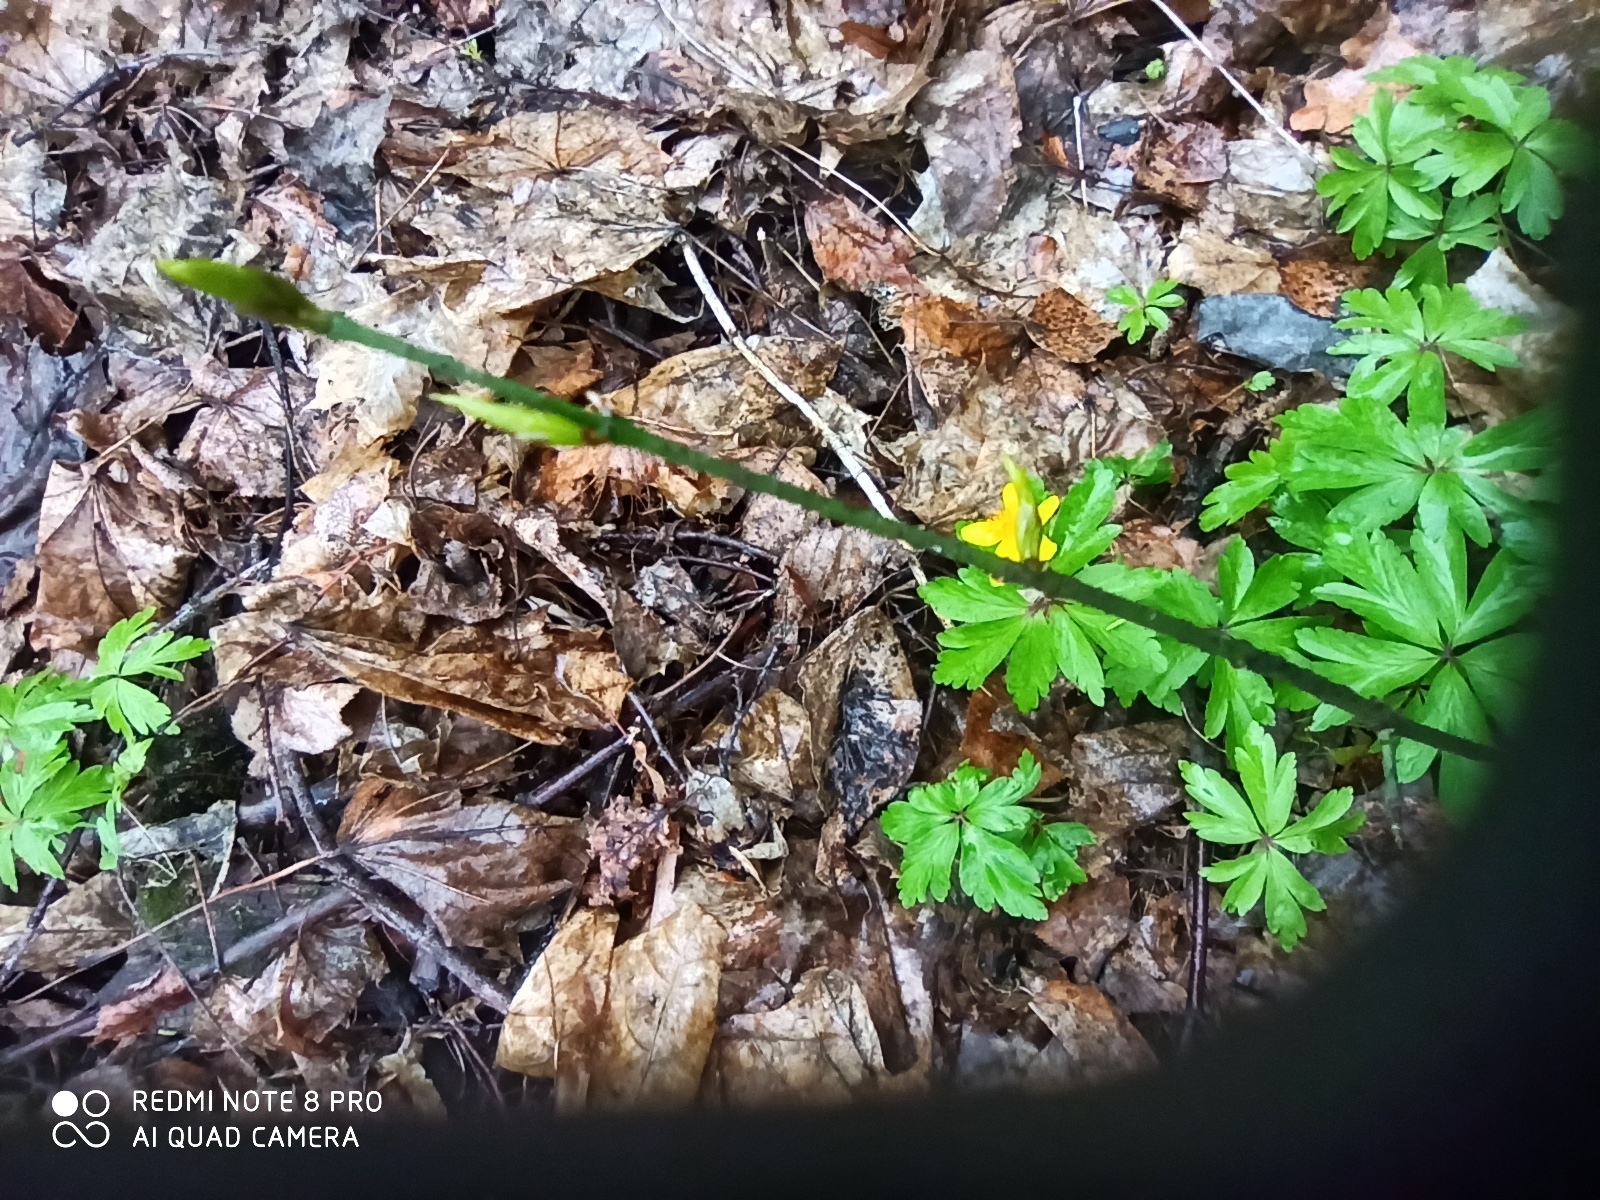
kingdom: Plantae
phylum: Tracheophyta
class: Magnoliopsida
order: Celastrales
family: Celastraceae
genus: Euonymus
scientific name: Euonymus verrucosus
